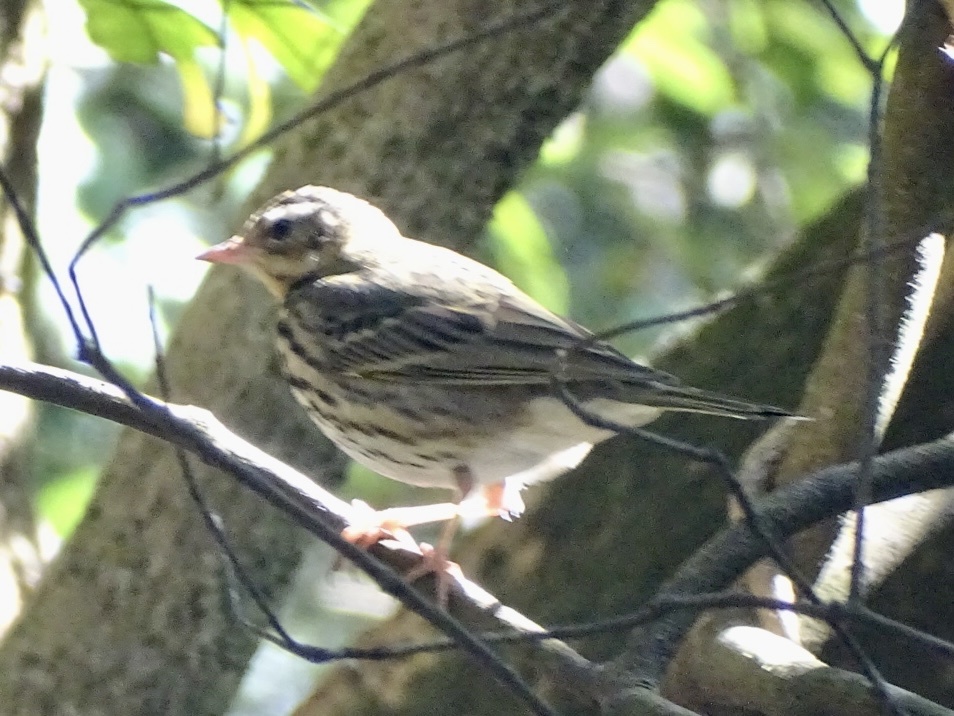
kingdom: Animalia
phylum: Chordata
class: Aves
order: Passeriformes
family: Motacillidae
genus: Anthus
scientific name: Anthus hodgsoni
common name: Olive-backed pipit
